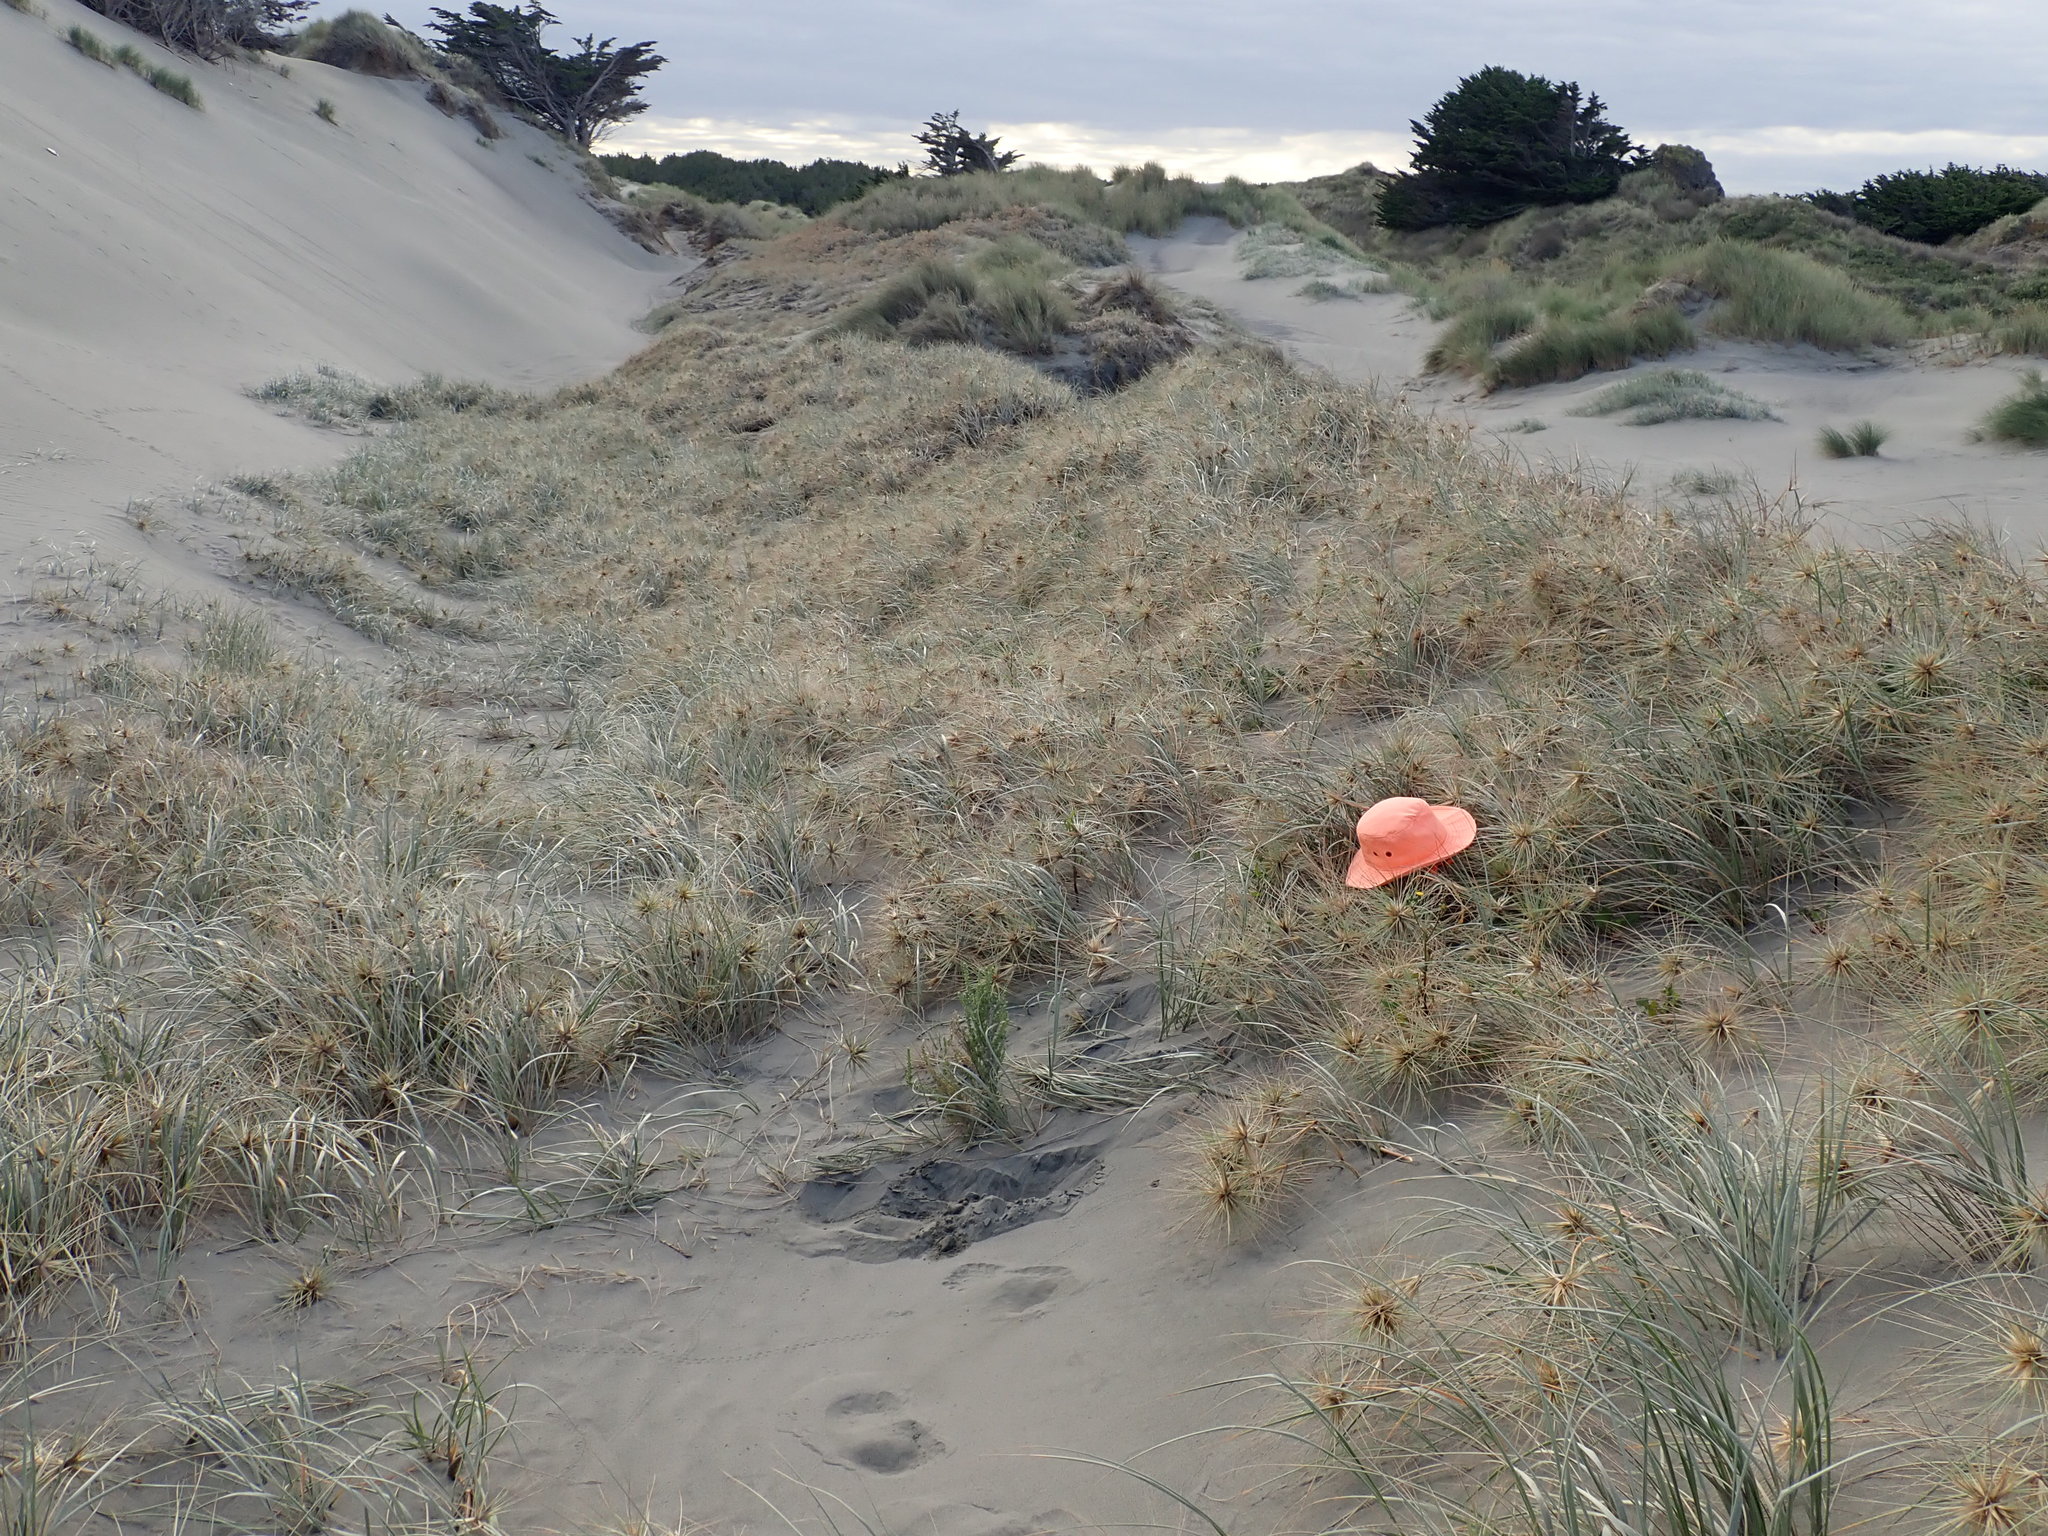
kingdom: Animalia
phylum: Arthropoda
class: Arachnida
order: Araneae
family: Theridiidae
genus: Latrodectus
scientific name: Latrodectus katipo
